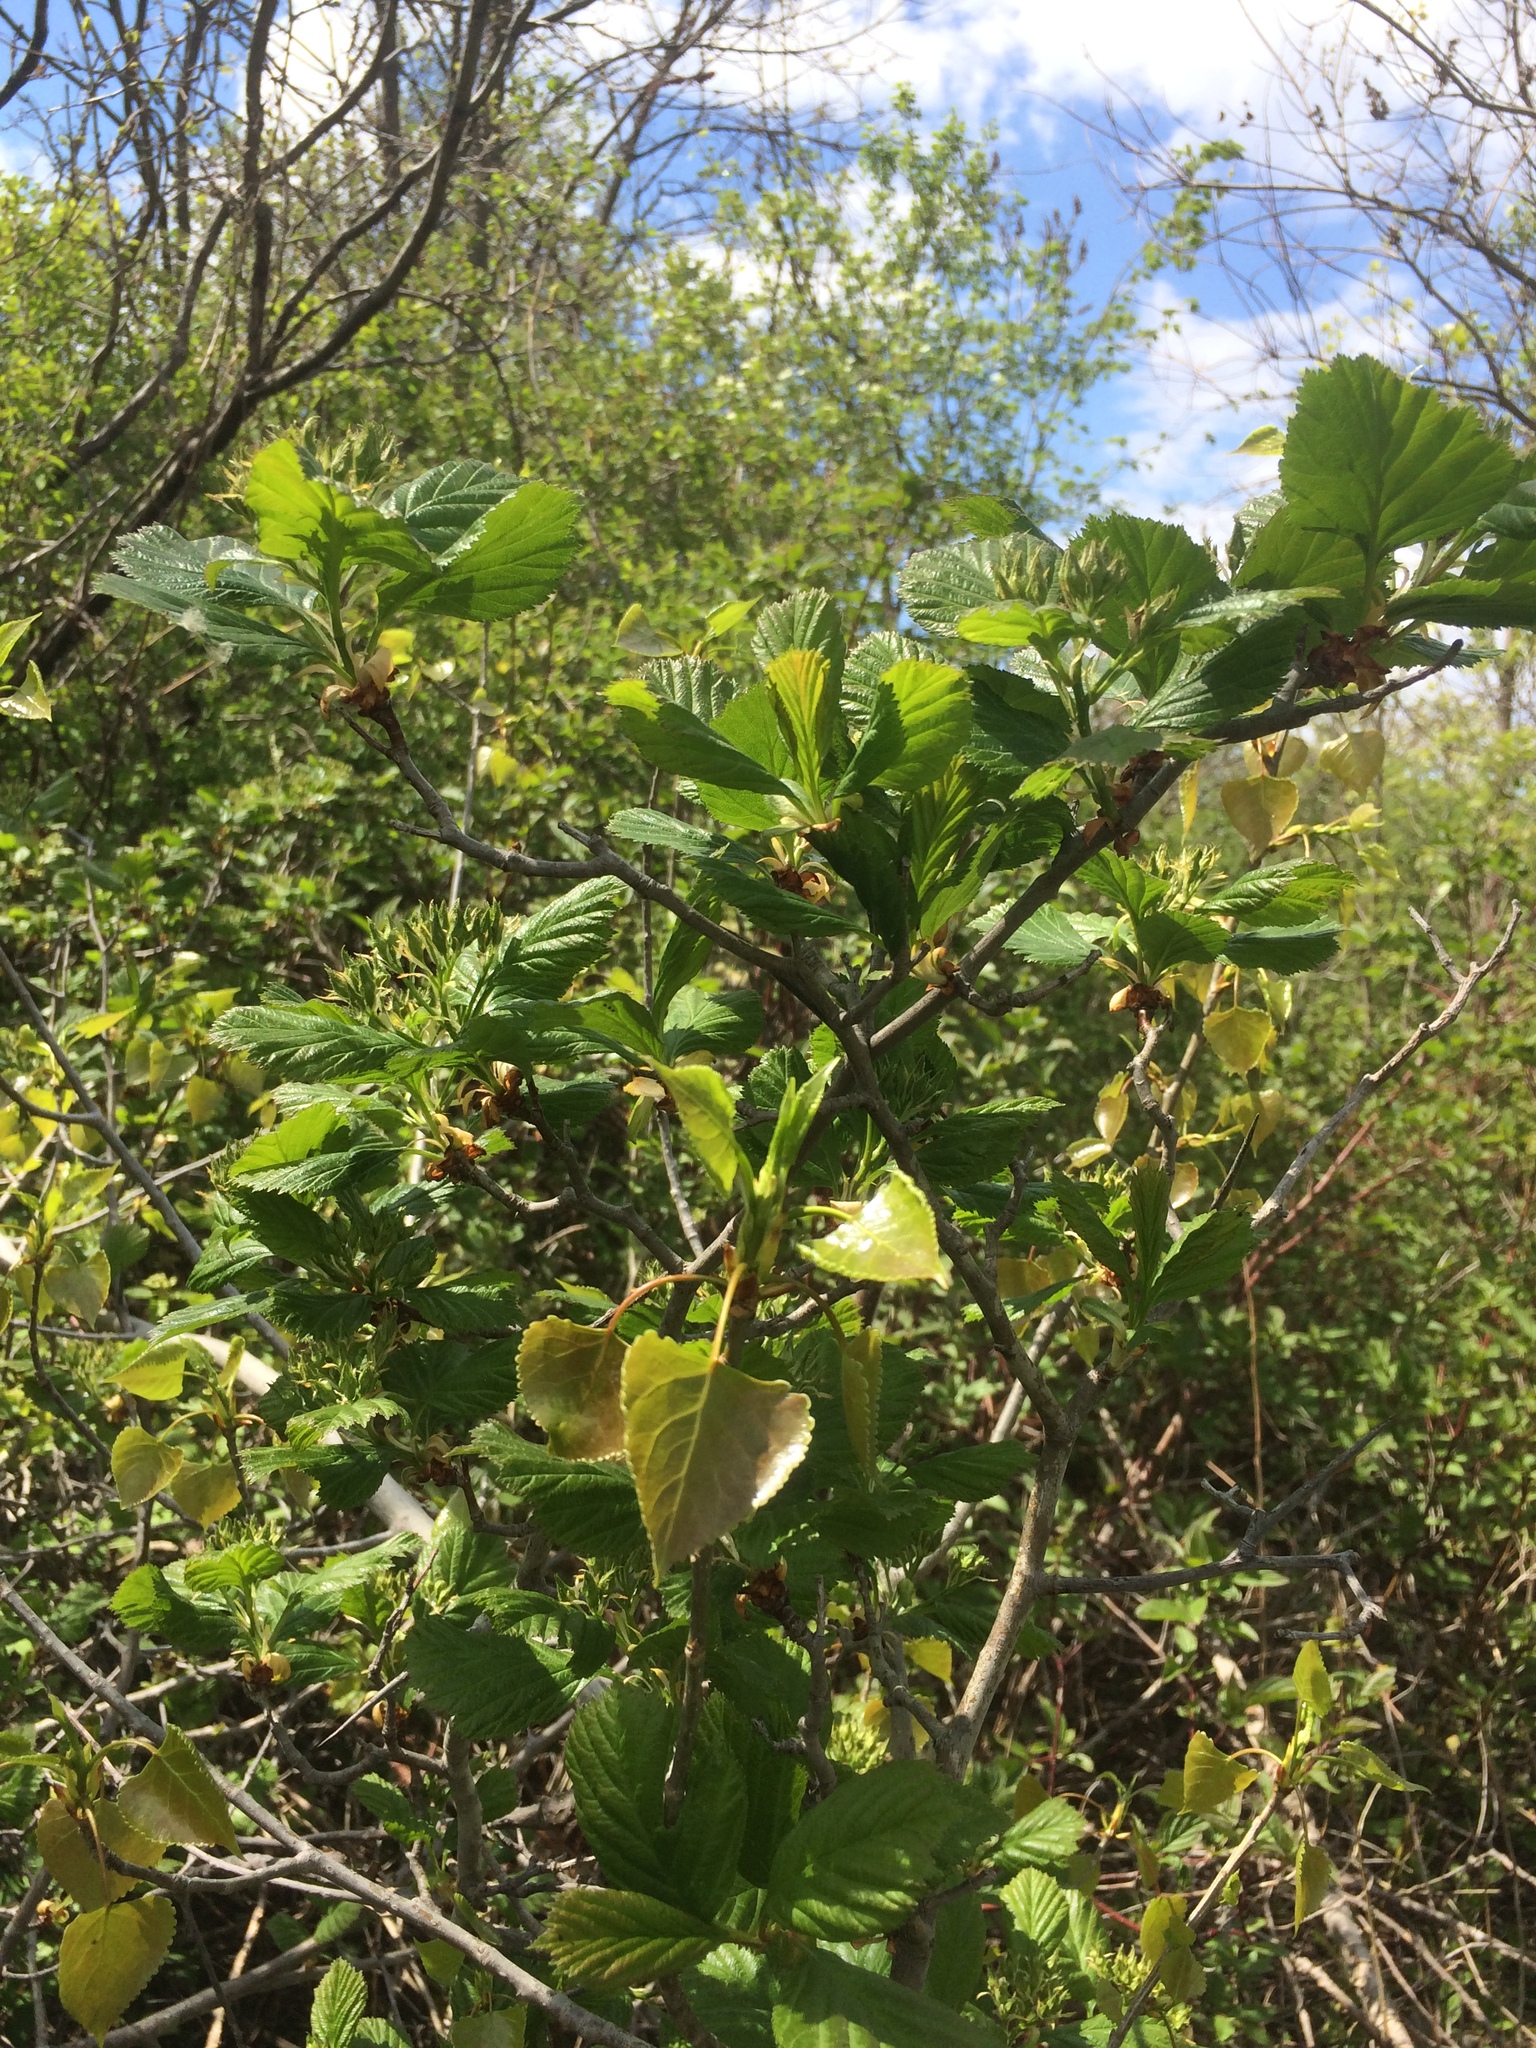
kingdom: Plantae
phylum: Tracheophyta
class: Magnoliopsida
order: Rosales
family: Rosaceae
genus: Crataegus
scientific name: Crataegus macracantha
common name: Large-thorn hawthorn
